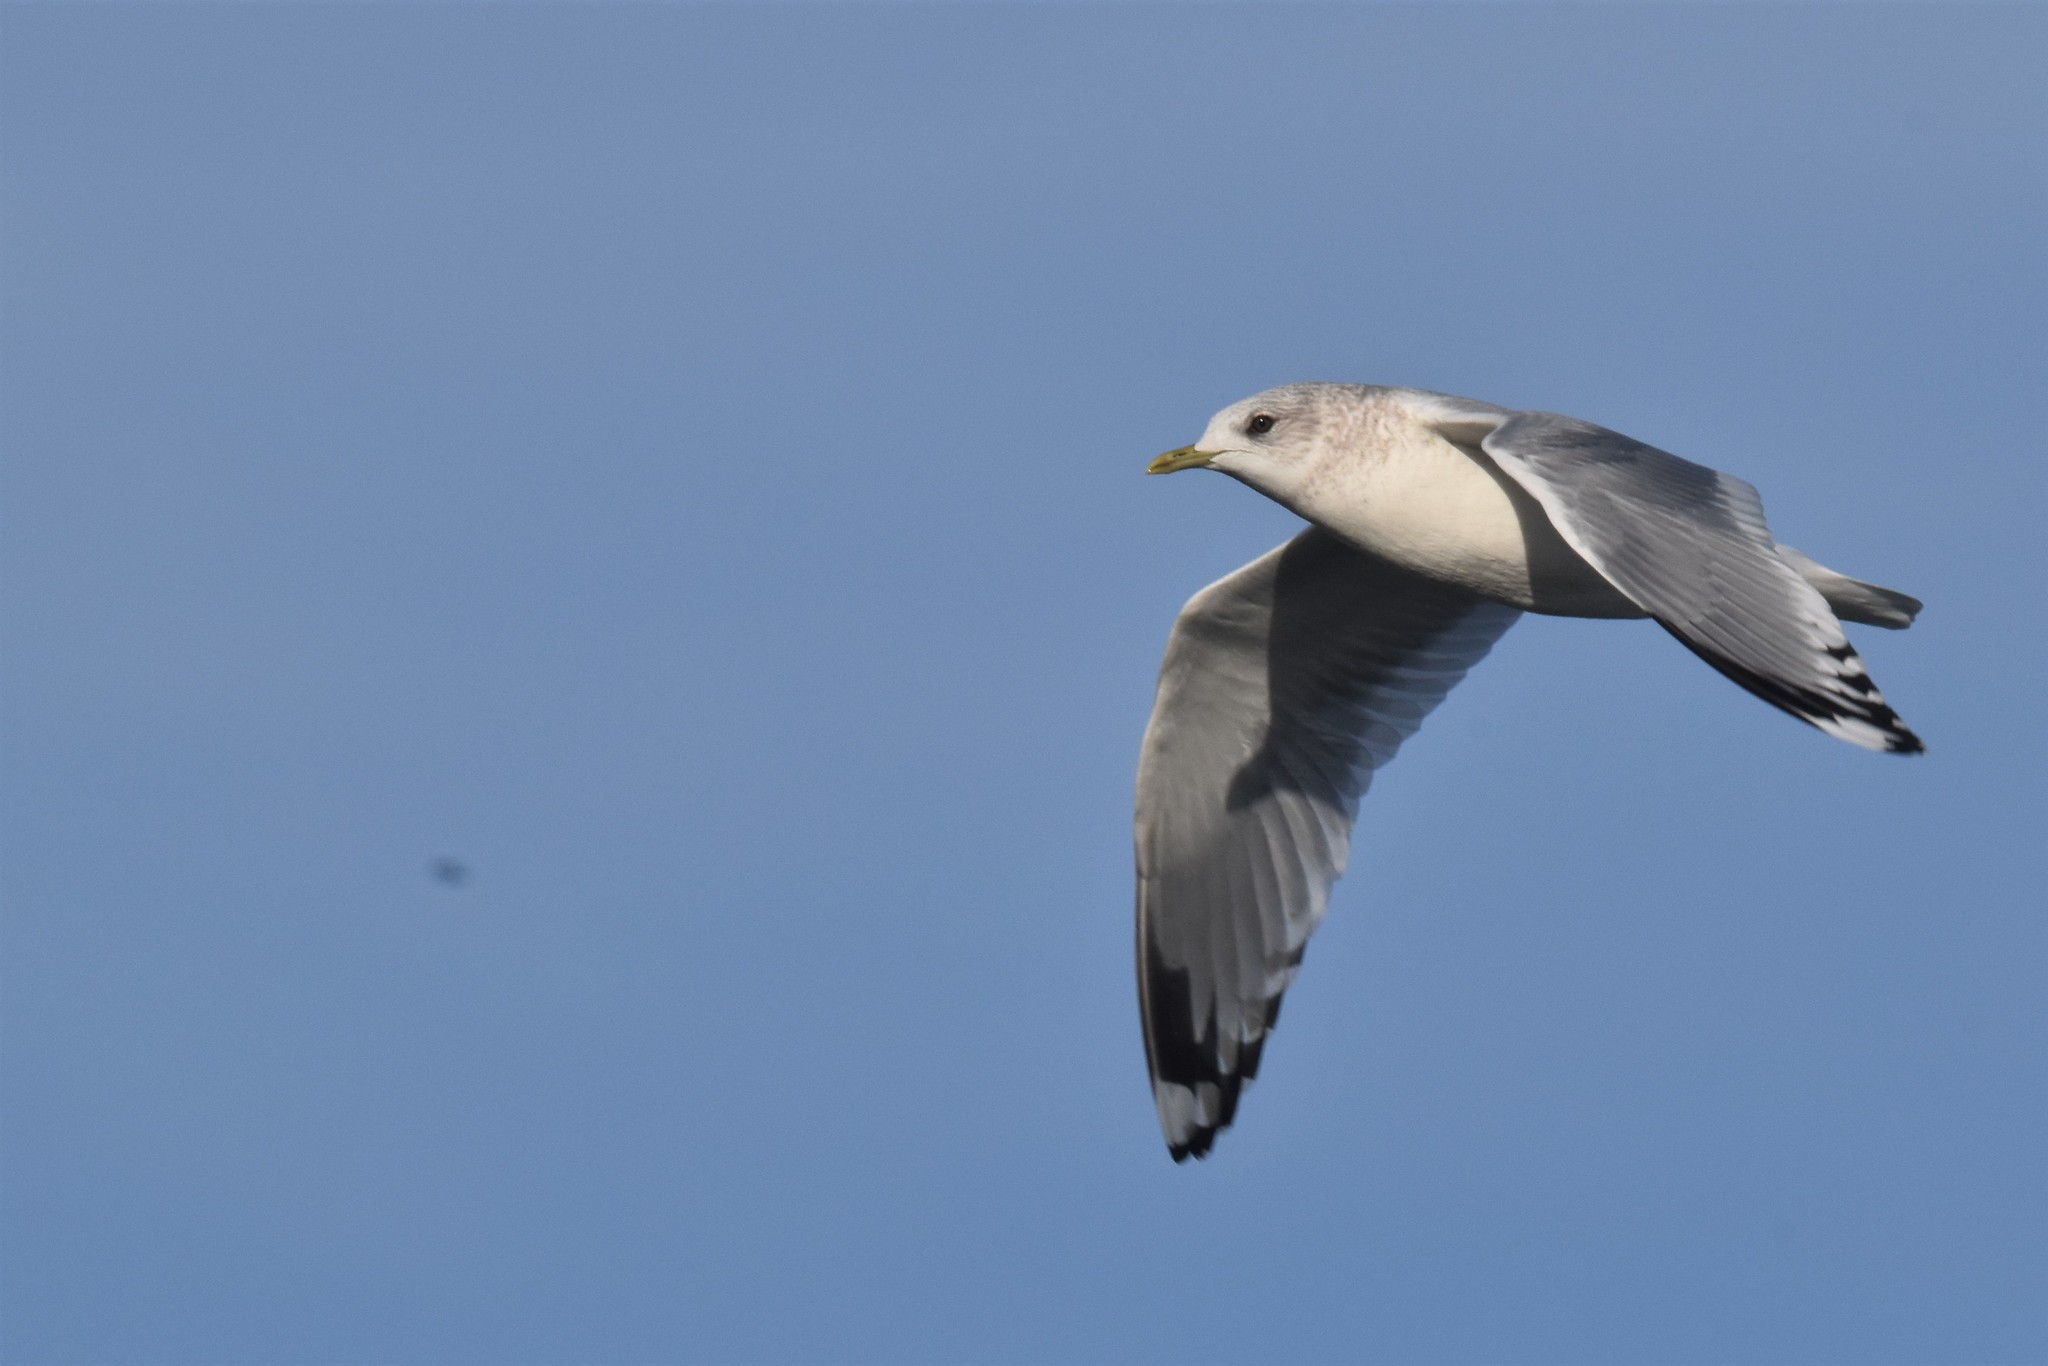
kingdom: Animalia
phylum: Chordata
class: Aves
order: Charadriiformes
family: Laridae
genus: Larus
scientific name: Larus brachyrhynchus
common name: Short-billed gull
